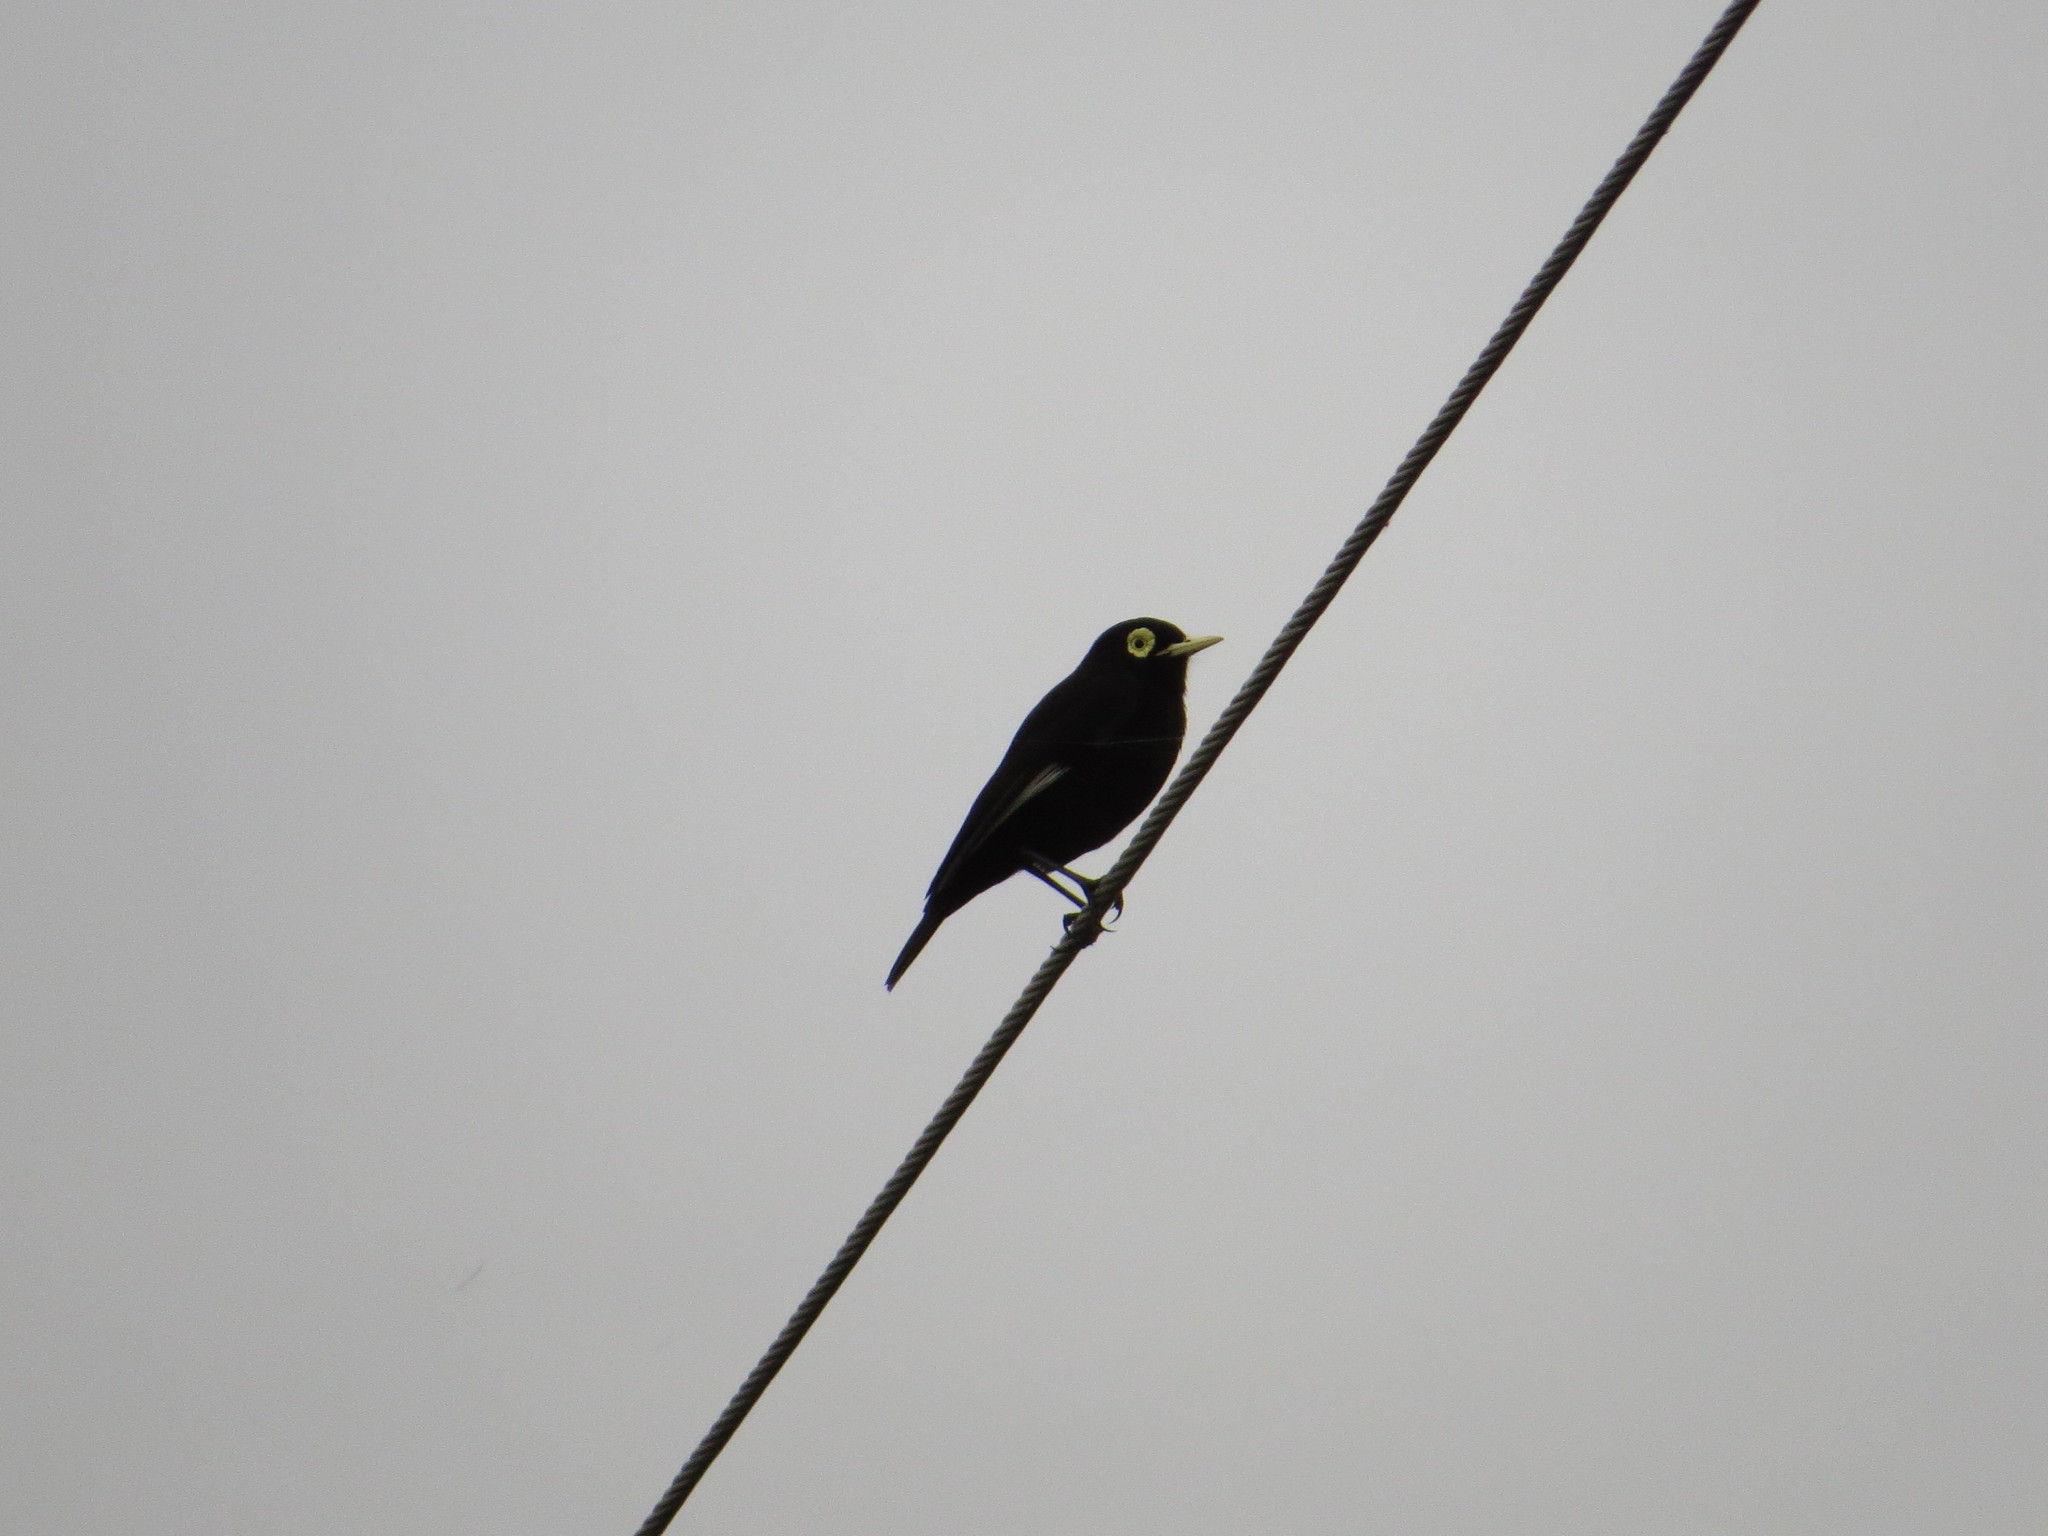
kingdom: Animalia
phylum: Chordata
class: Aves
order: Passeriformes
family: Tyrannidae
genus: Hymenops
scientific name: Hymenops perspicillatus
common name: Spectacled tyrant
